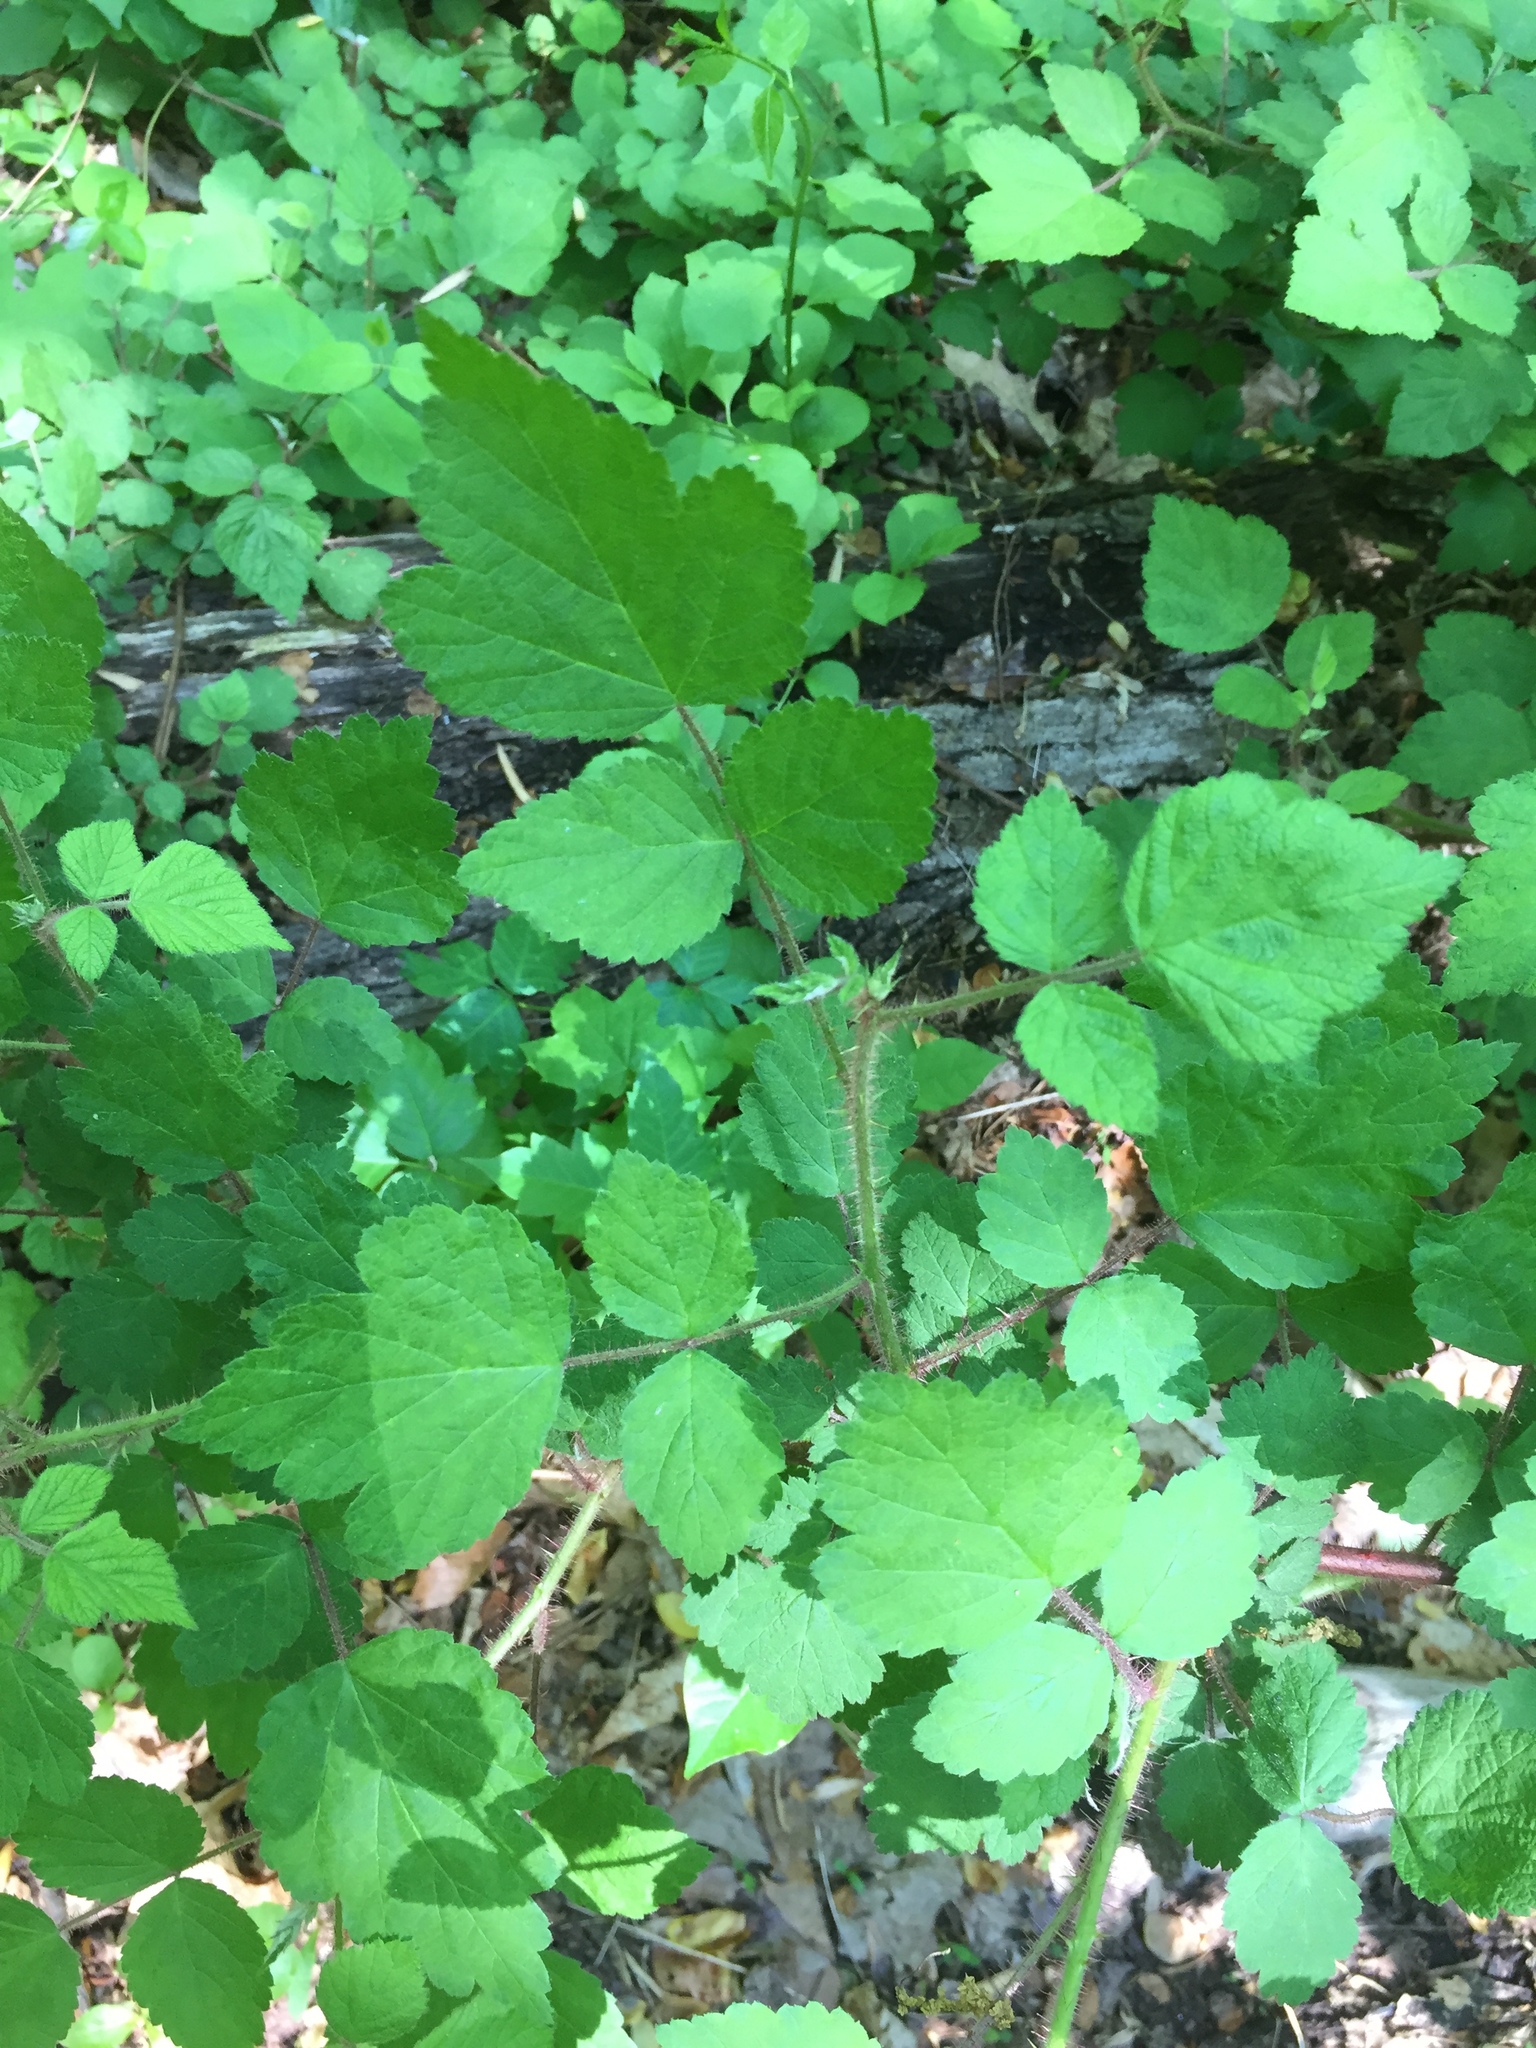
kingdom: Plantae
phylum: Tracheophyta
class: Magnoliopsida
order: Rosales
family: Rosaceae
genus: Rubus
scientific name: Rubus phoenicolasius
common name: Japanese wineberry
